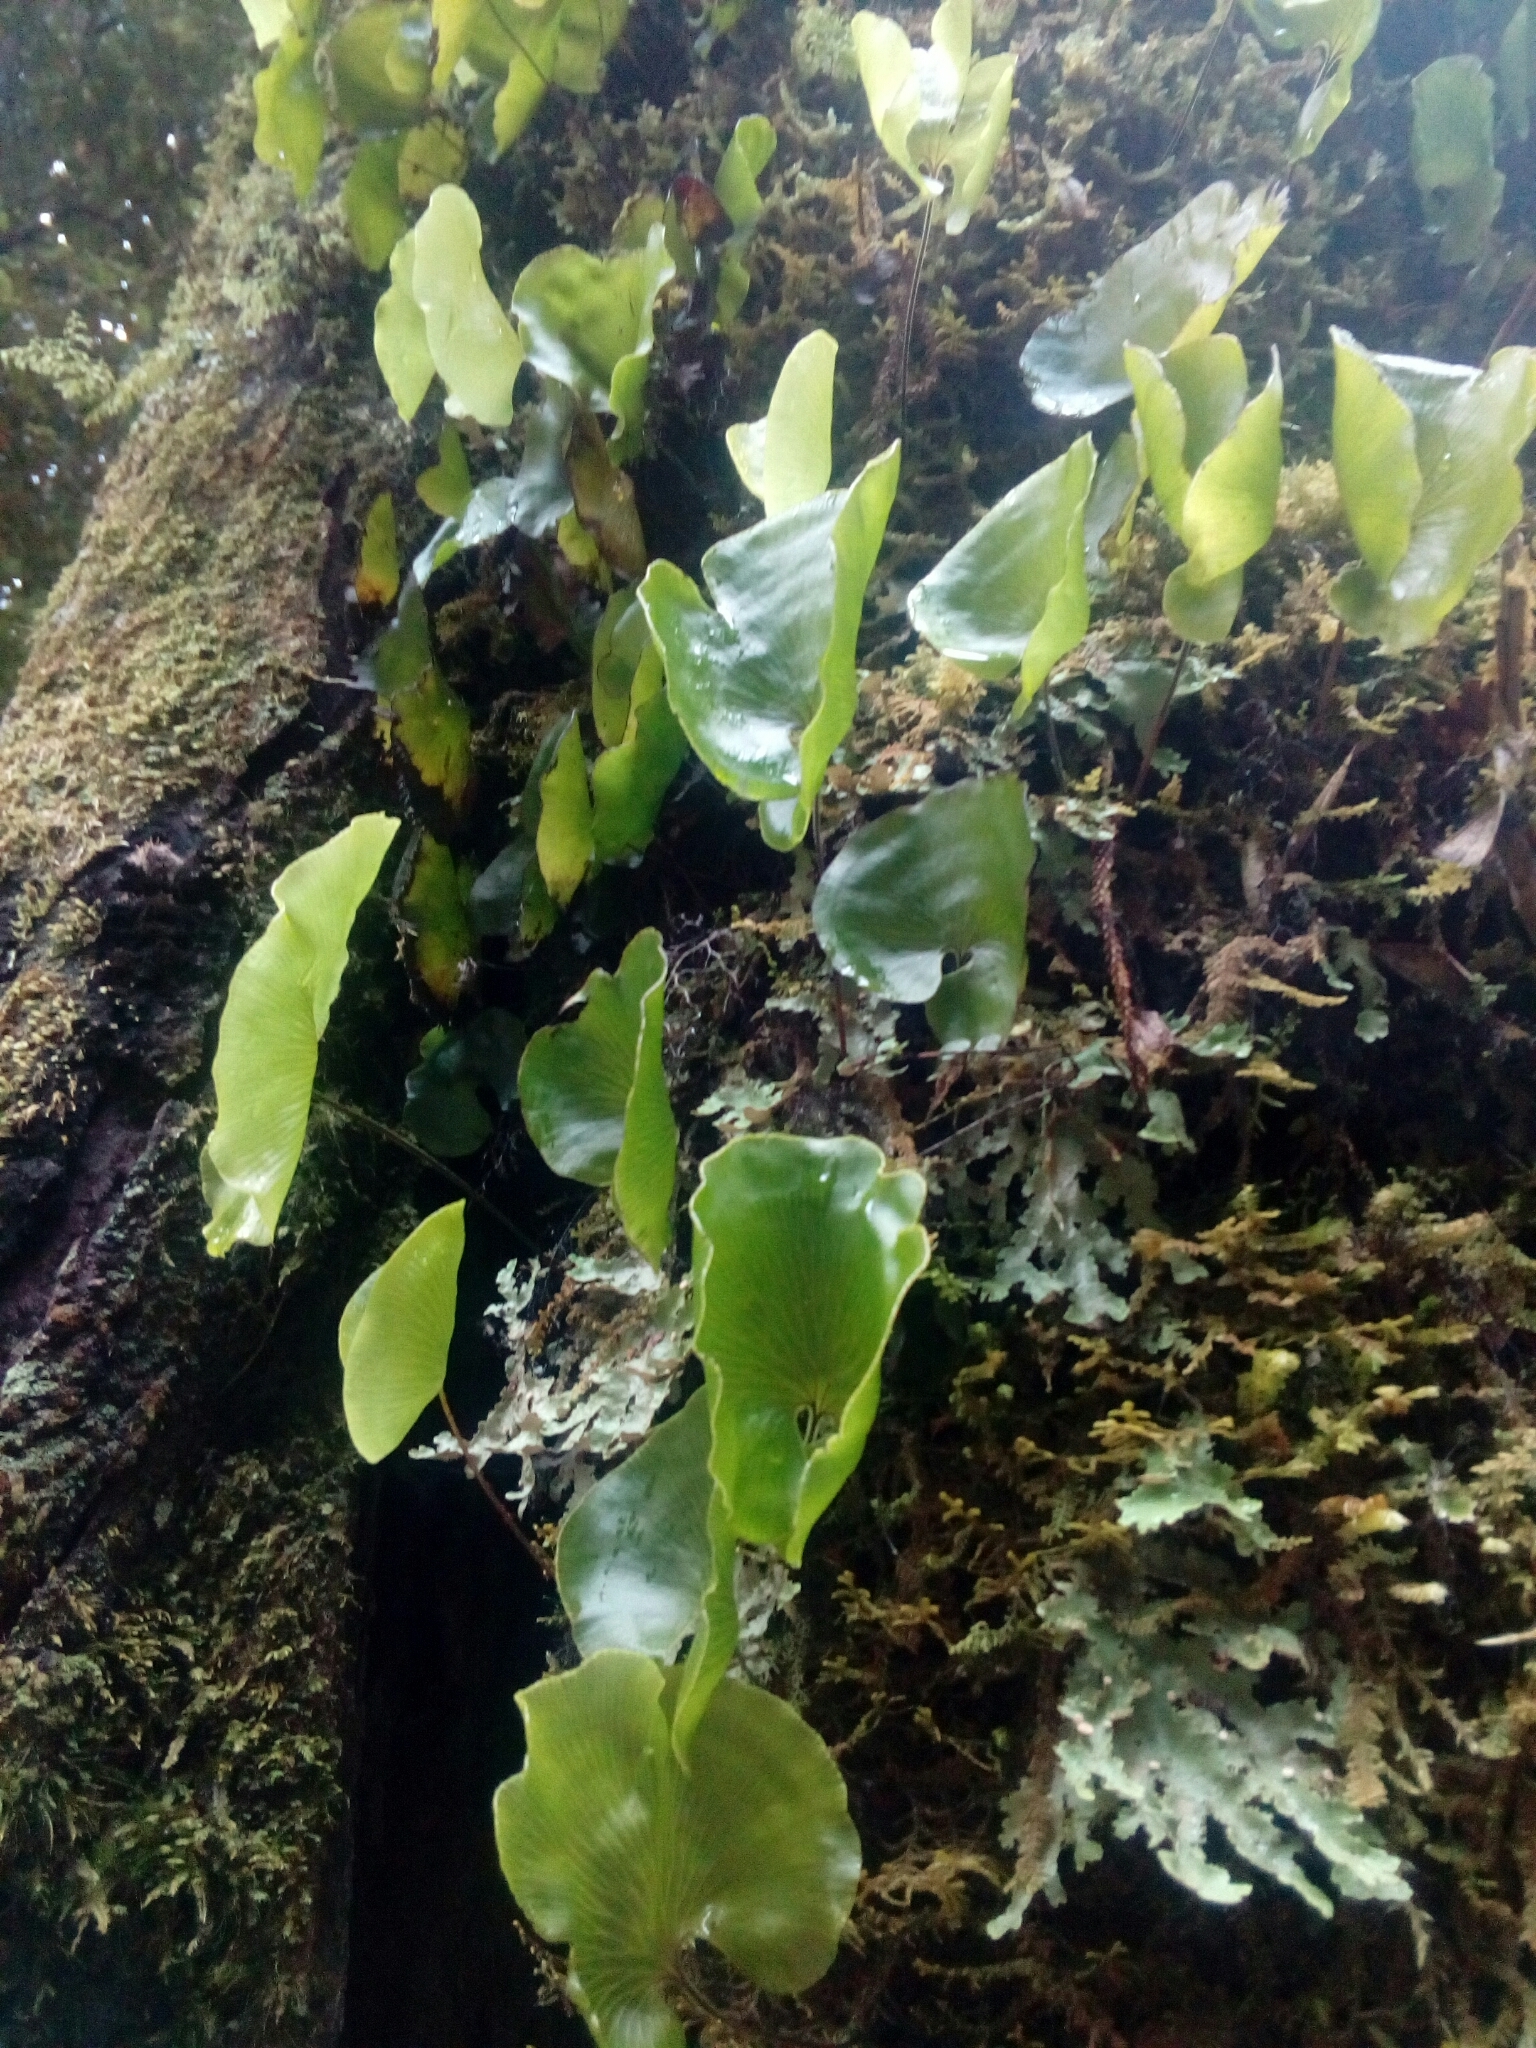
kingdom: Plantae
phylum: Tracheophyta
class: Polypodiopsida
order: Hymenophyllales
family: Hymenophyllaceae
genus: Hymenophyllum
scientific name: Hymenophyllum nephrophyllum
